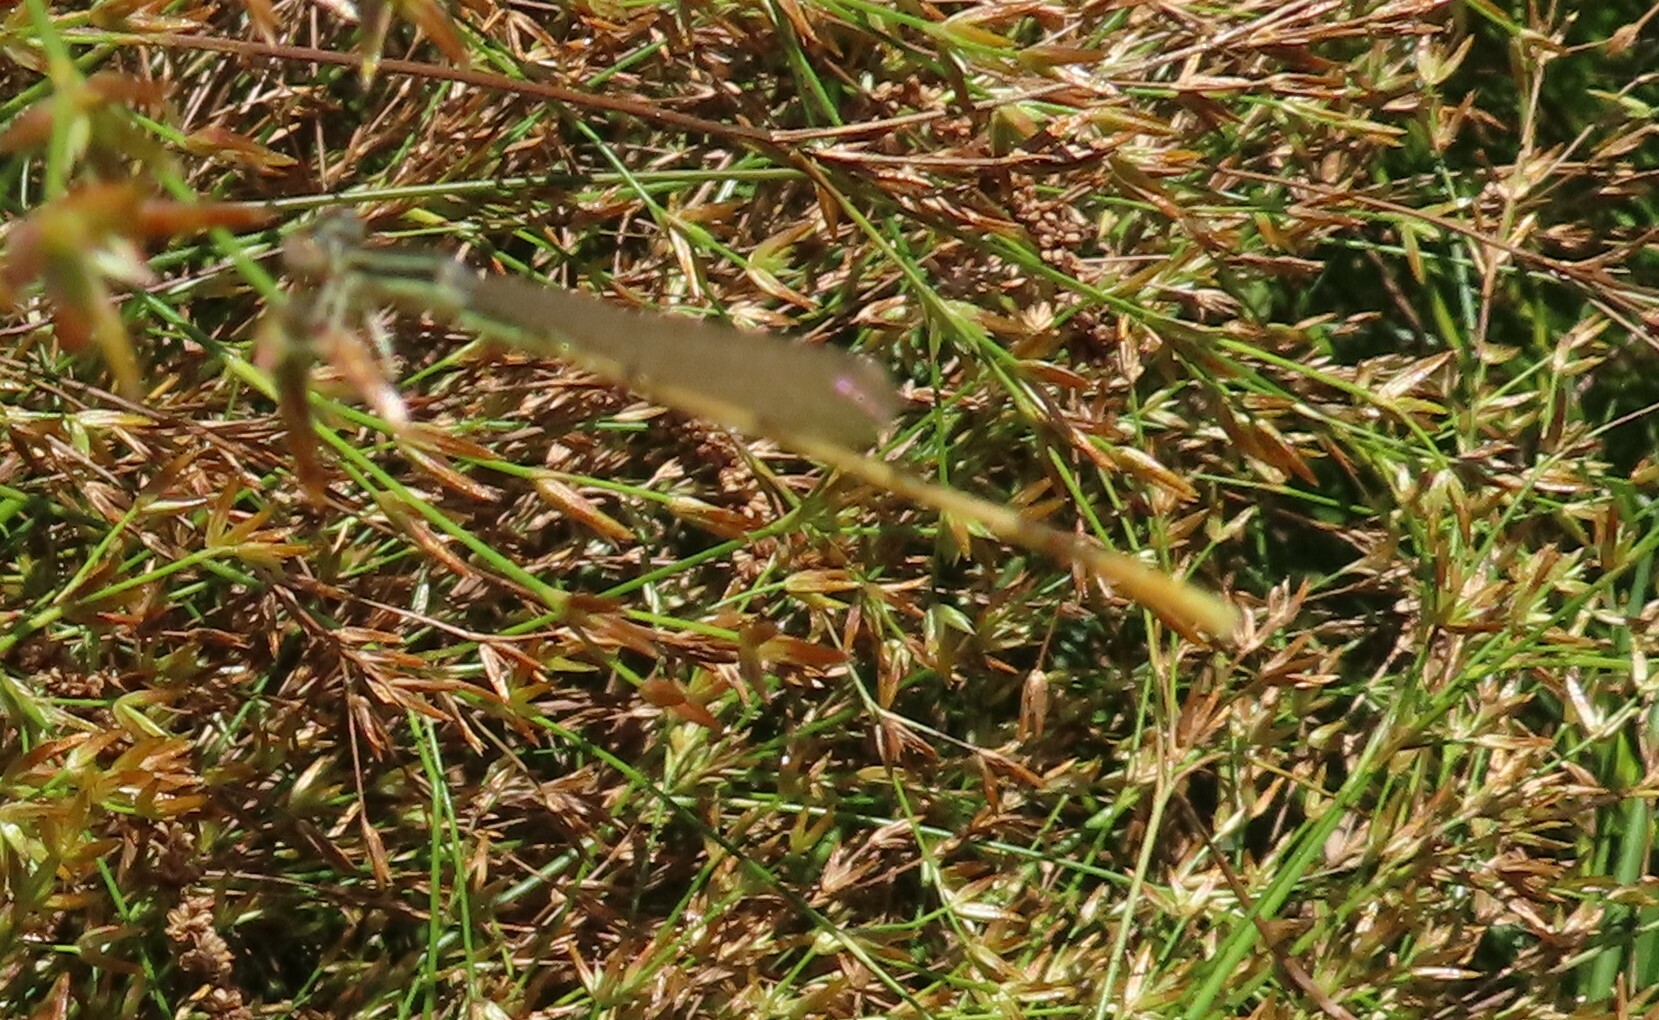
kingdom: Animalia
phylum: Arthropoda
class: Insecta
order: Odonata
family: Coenagrionidae
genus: Ischnura
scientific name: Ischnura hastata
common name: Citrine forktail
